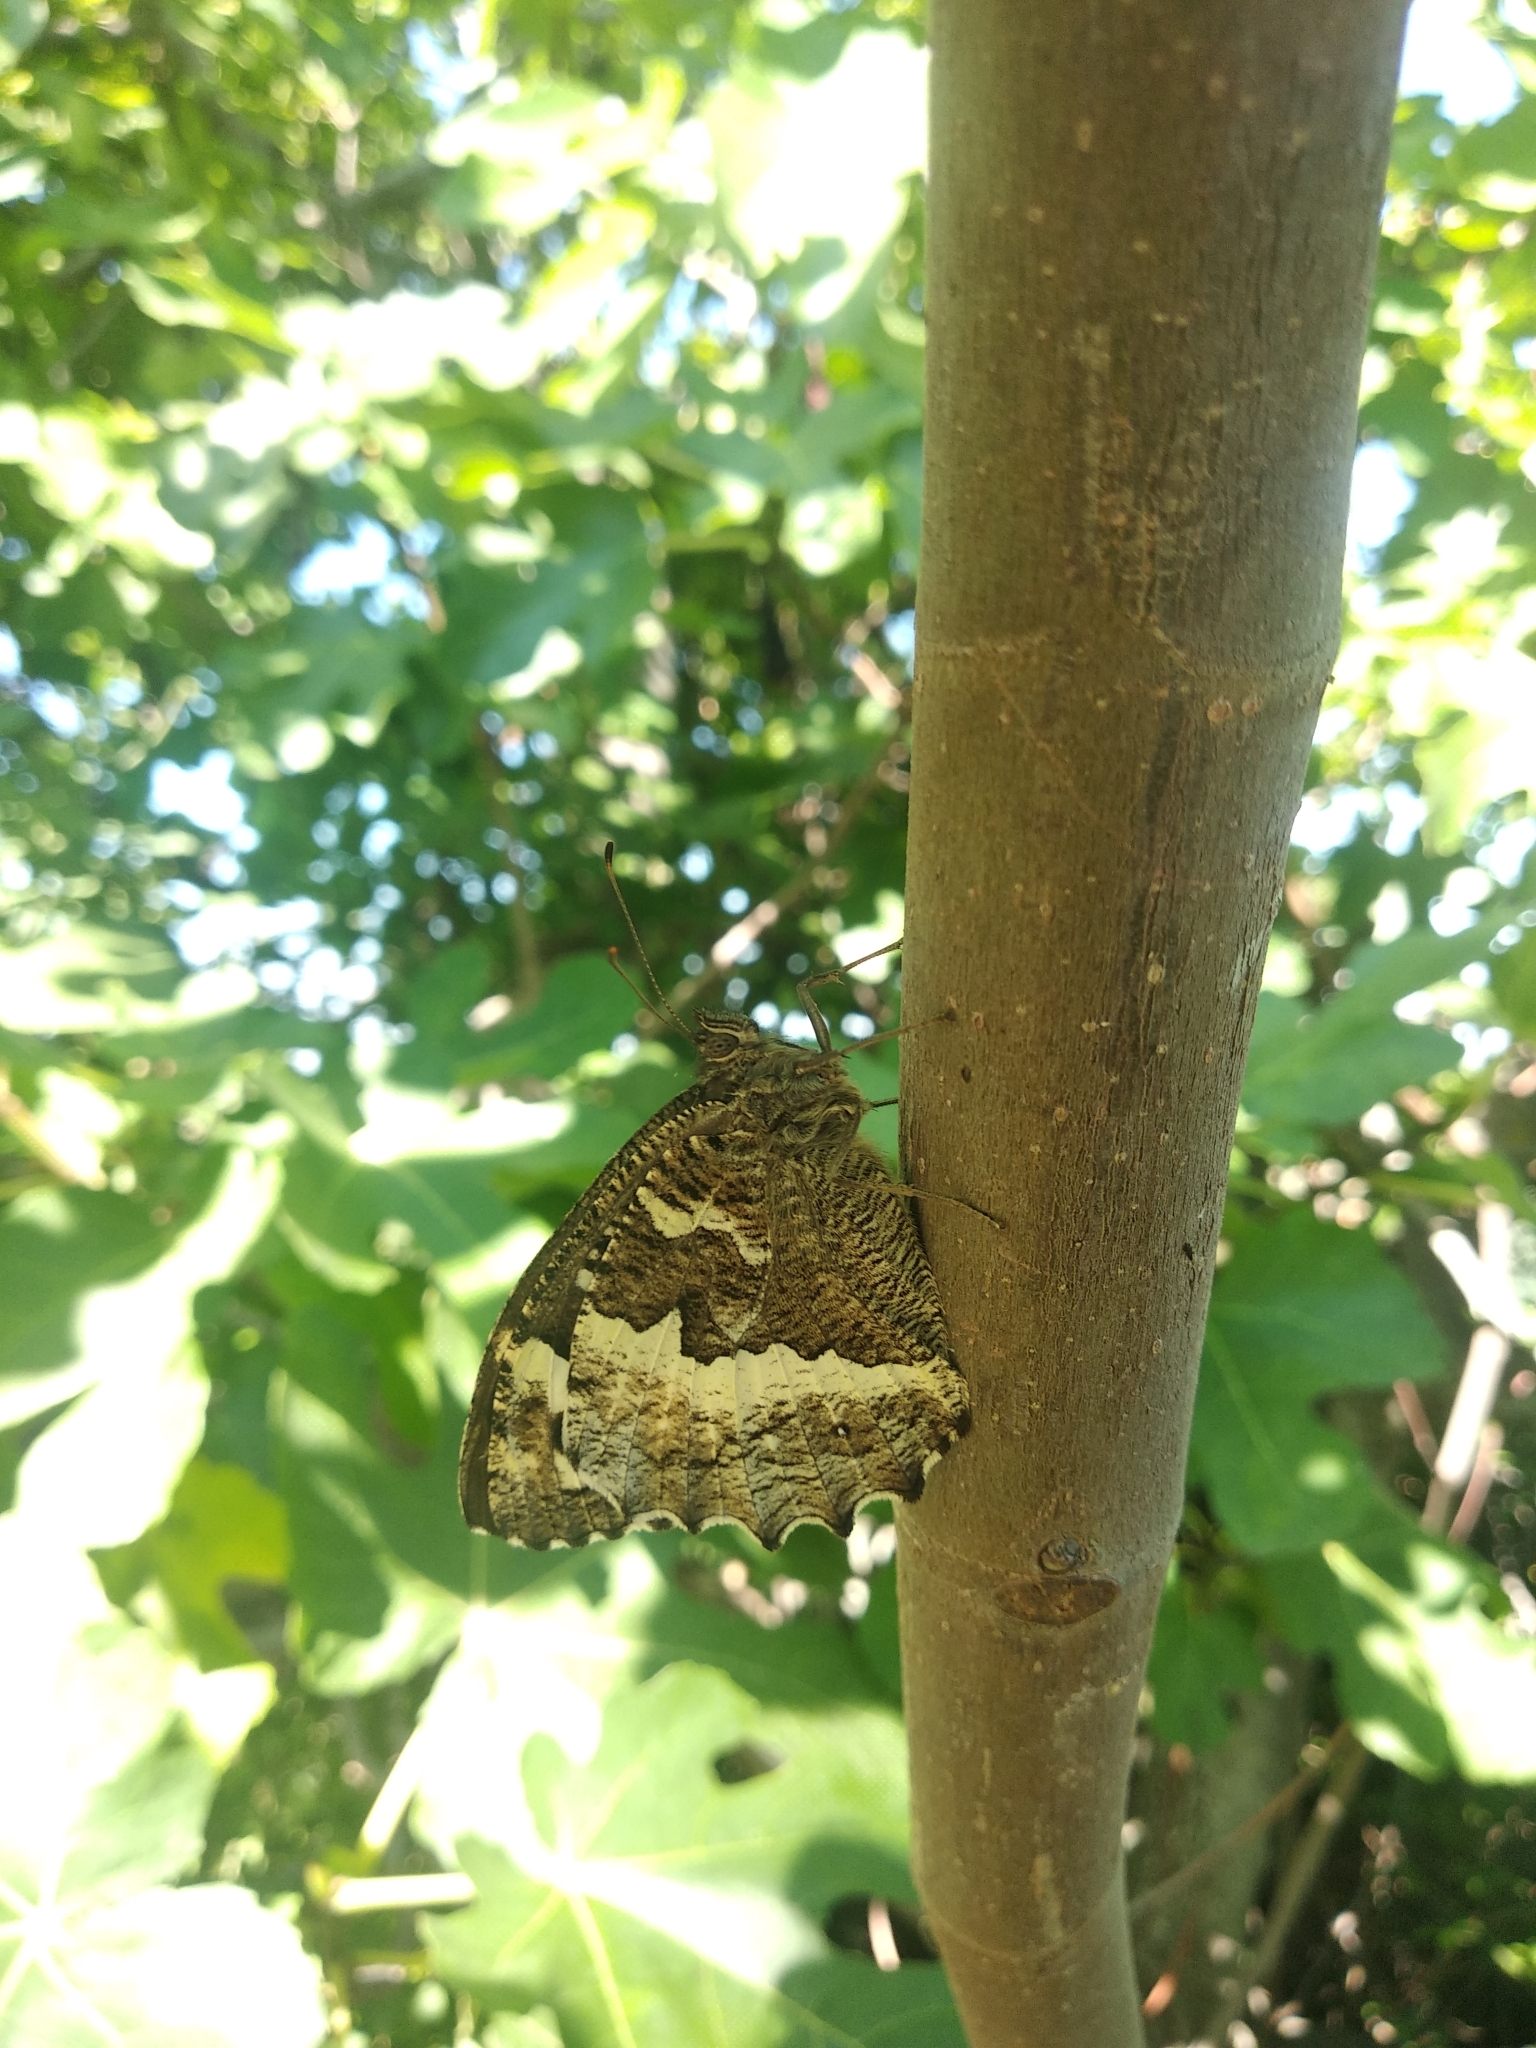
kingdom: Animalia
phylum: Arthropoda
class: Insecta
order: Lepidoptera
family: Lycaenidae
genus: Loweia
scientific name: Loweia tityrus
